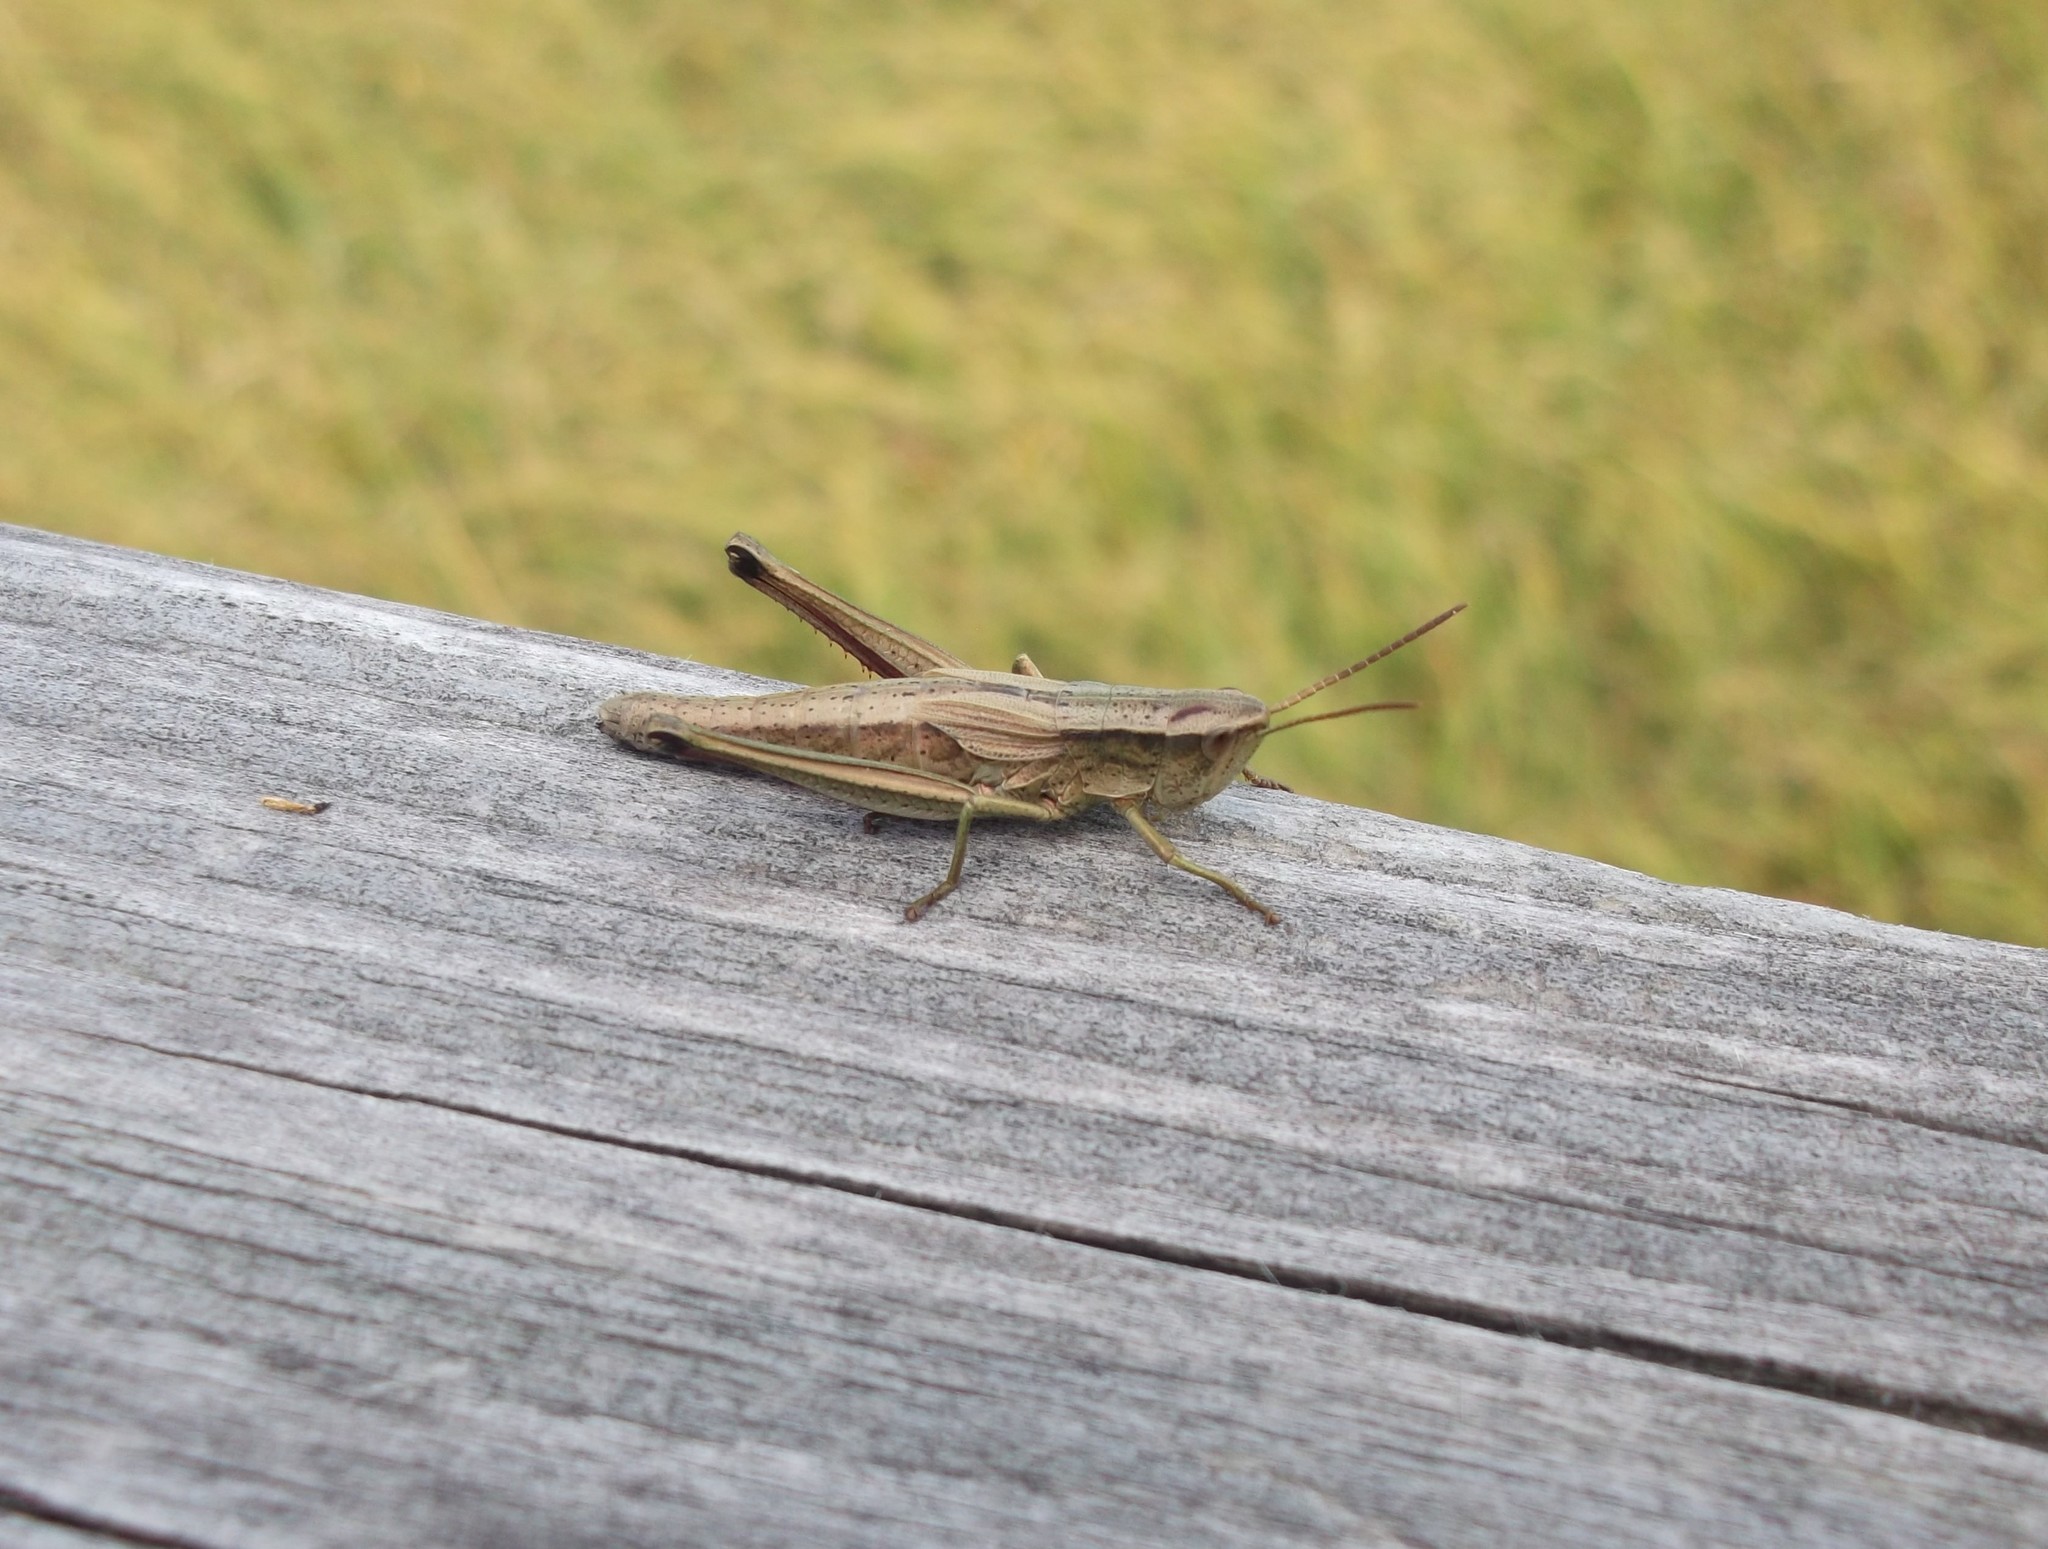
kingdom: Animalia
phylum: Arthropoda
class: Insecta
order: Orthoptera
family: Acrididae
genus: Chrysochraon
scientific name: Chrysochraon dispar
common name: Large gold grasshopper
